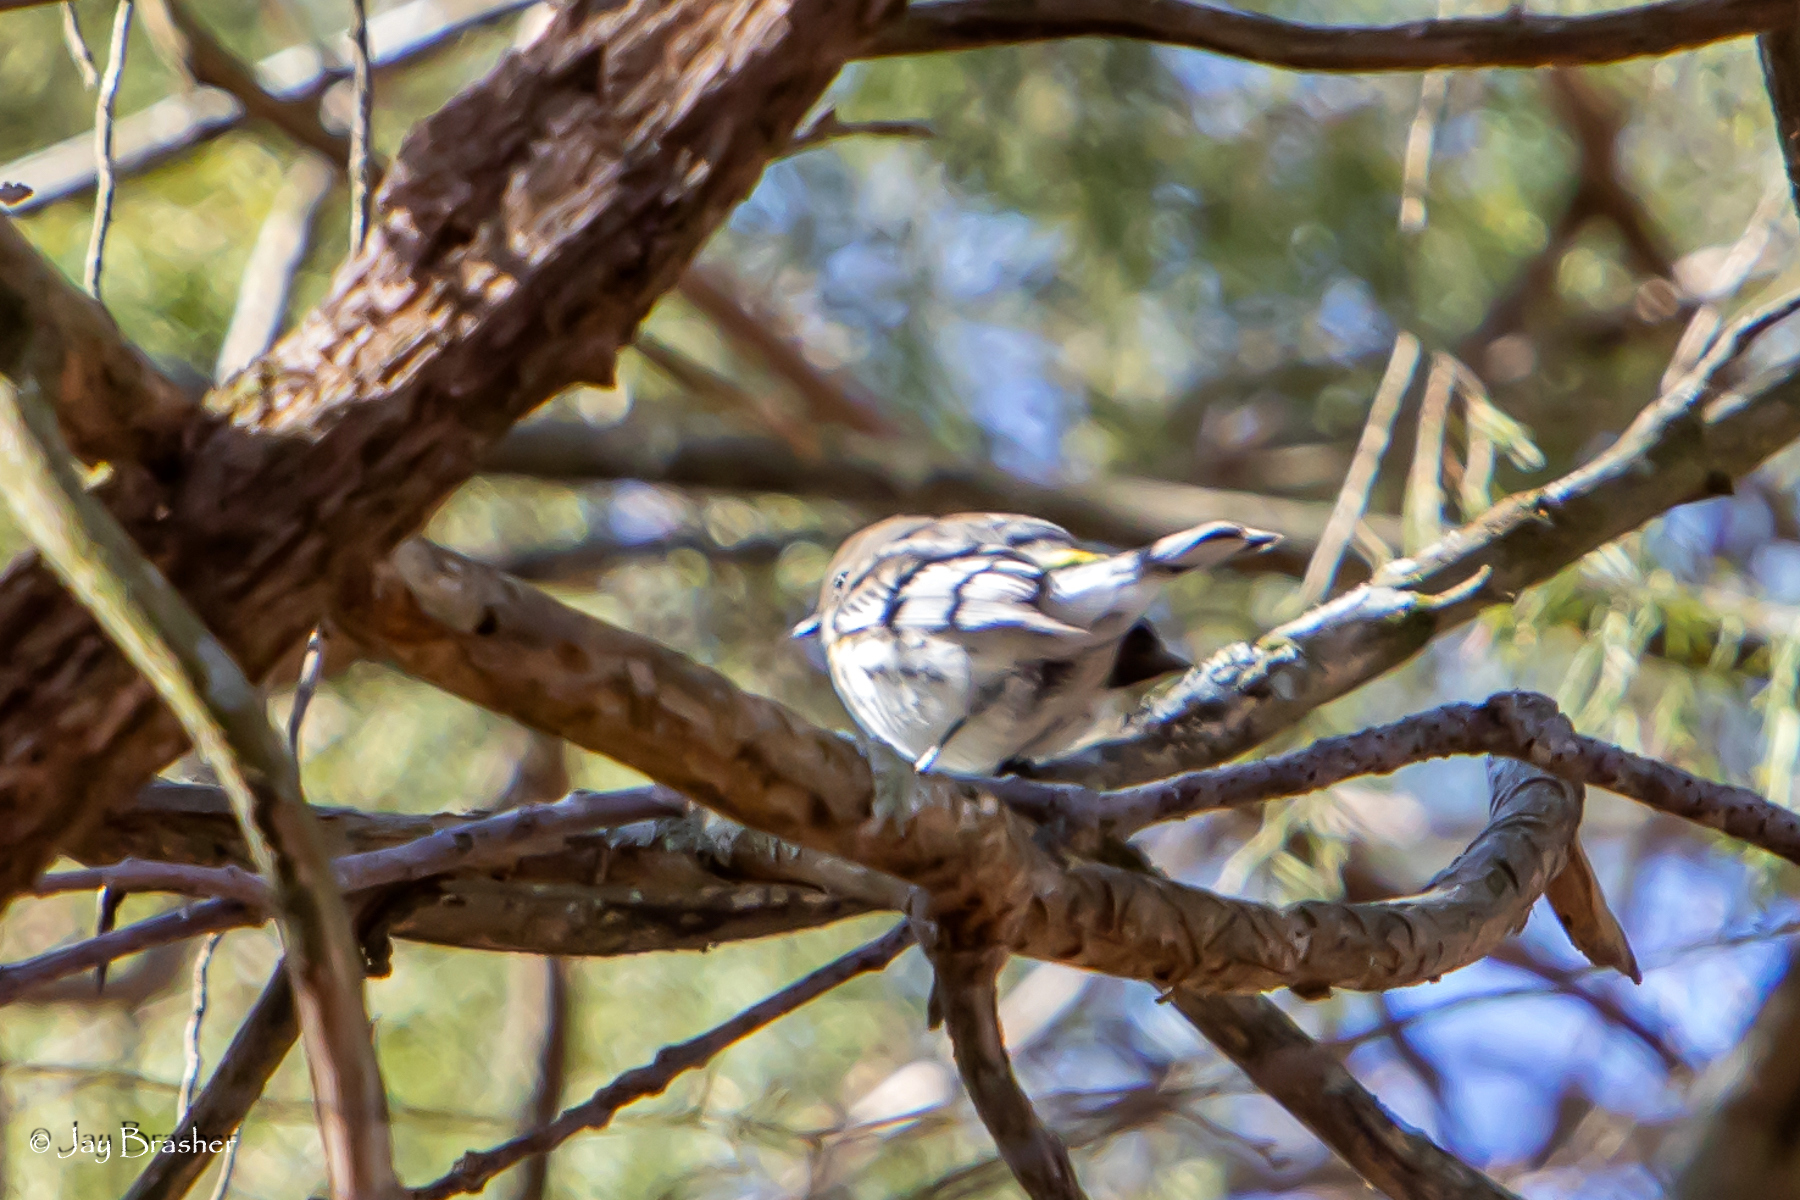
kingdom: Animalia
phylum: Chordata
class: Aves
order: Passeriformes
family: Parulidae
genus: Setophaga
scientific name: Setophaga coronata
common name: Myrtle warbler
